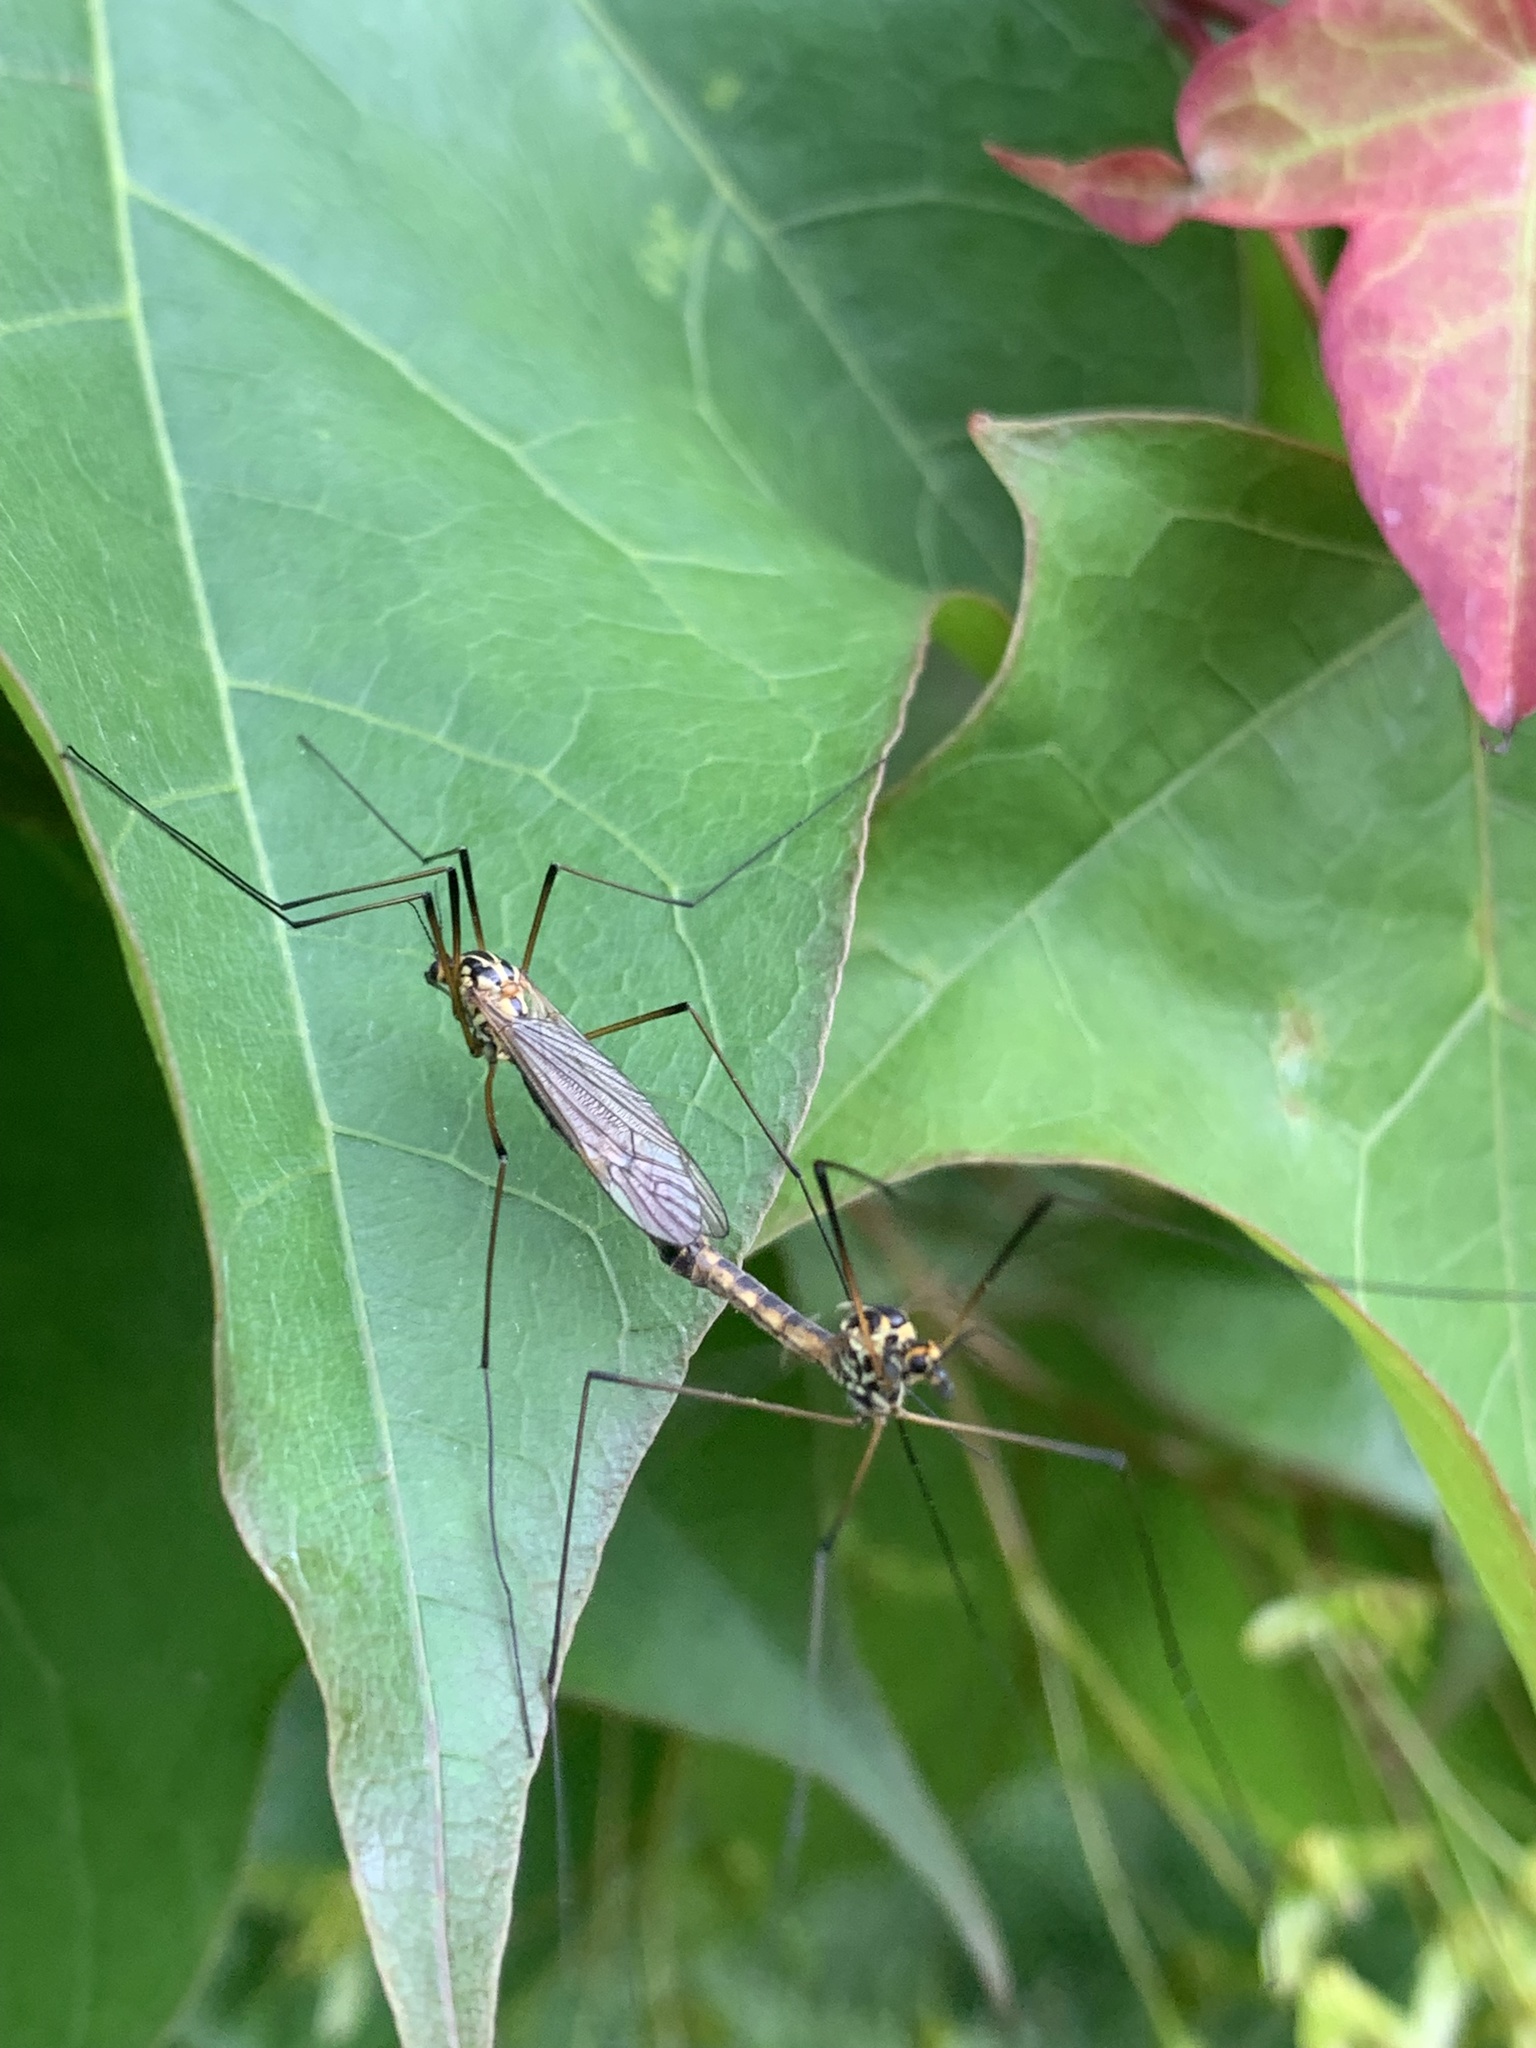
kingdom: Animalia
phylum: Arthropoda
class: Insecta
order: Diptera
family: Tipulidae
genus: Nephrotoma
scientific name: Nephrotoma appendiculata
